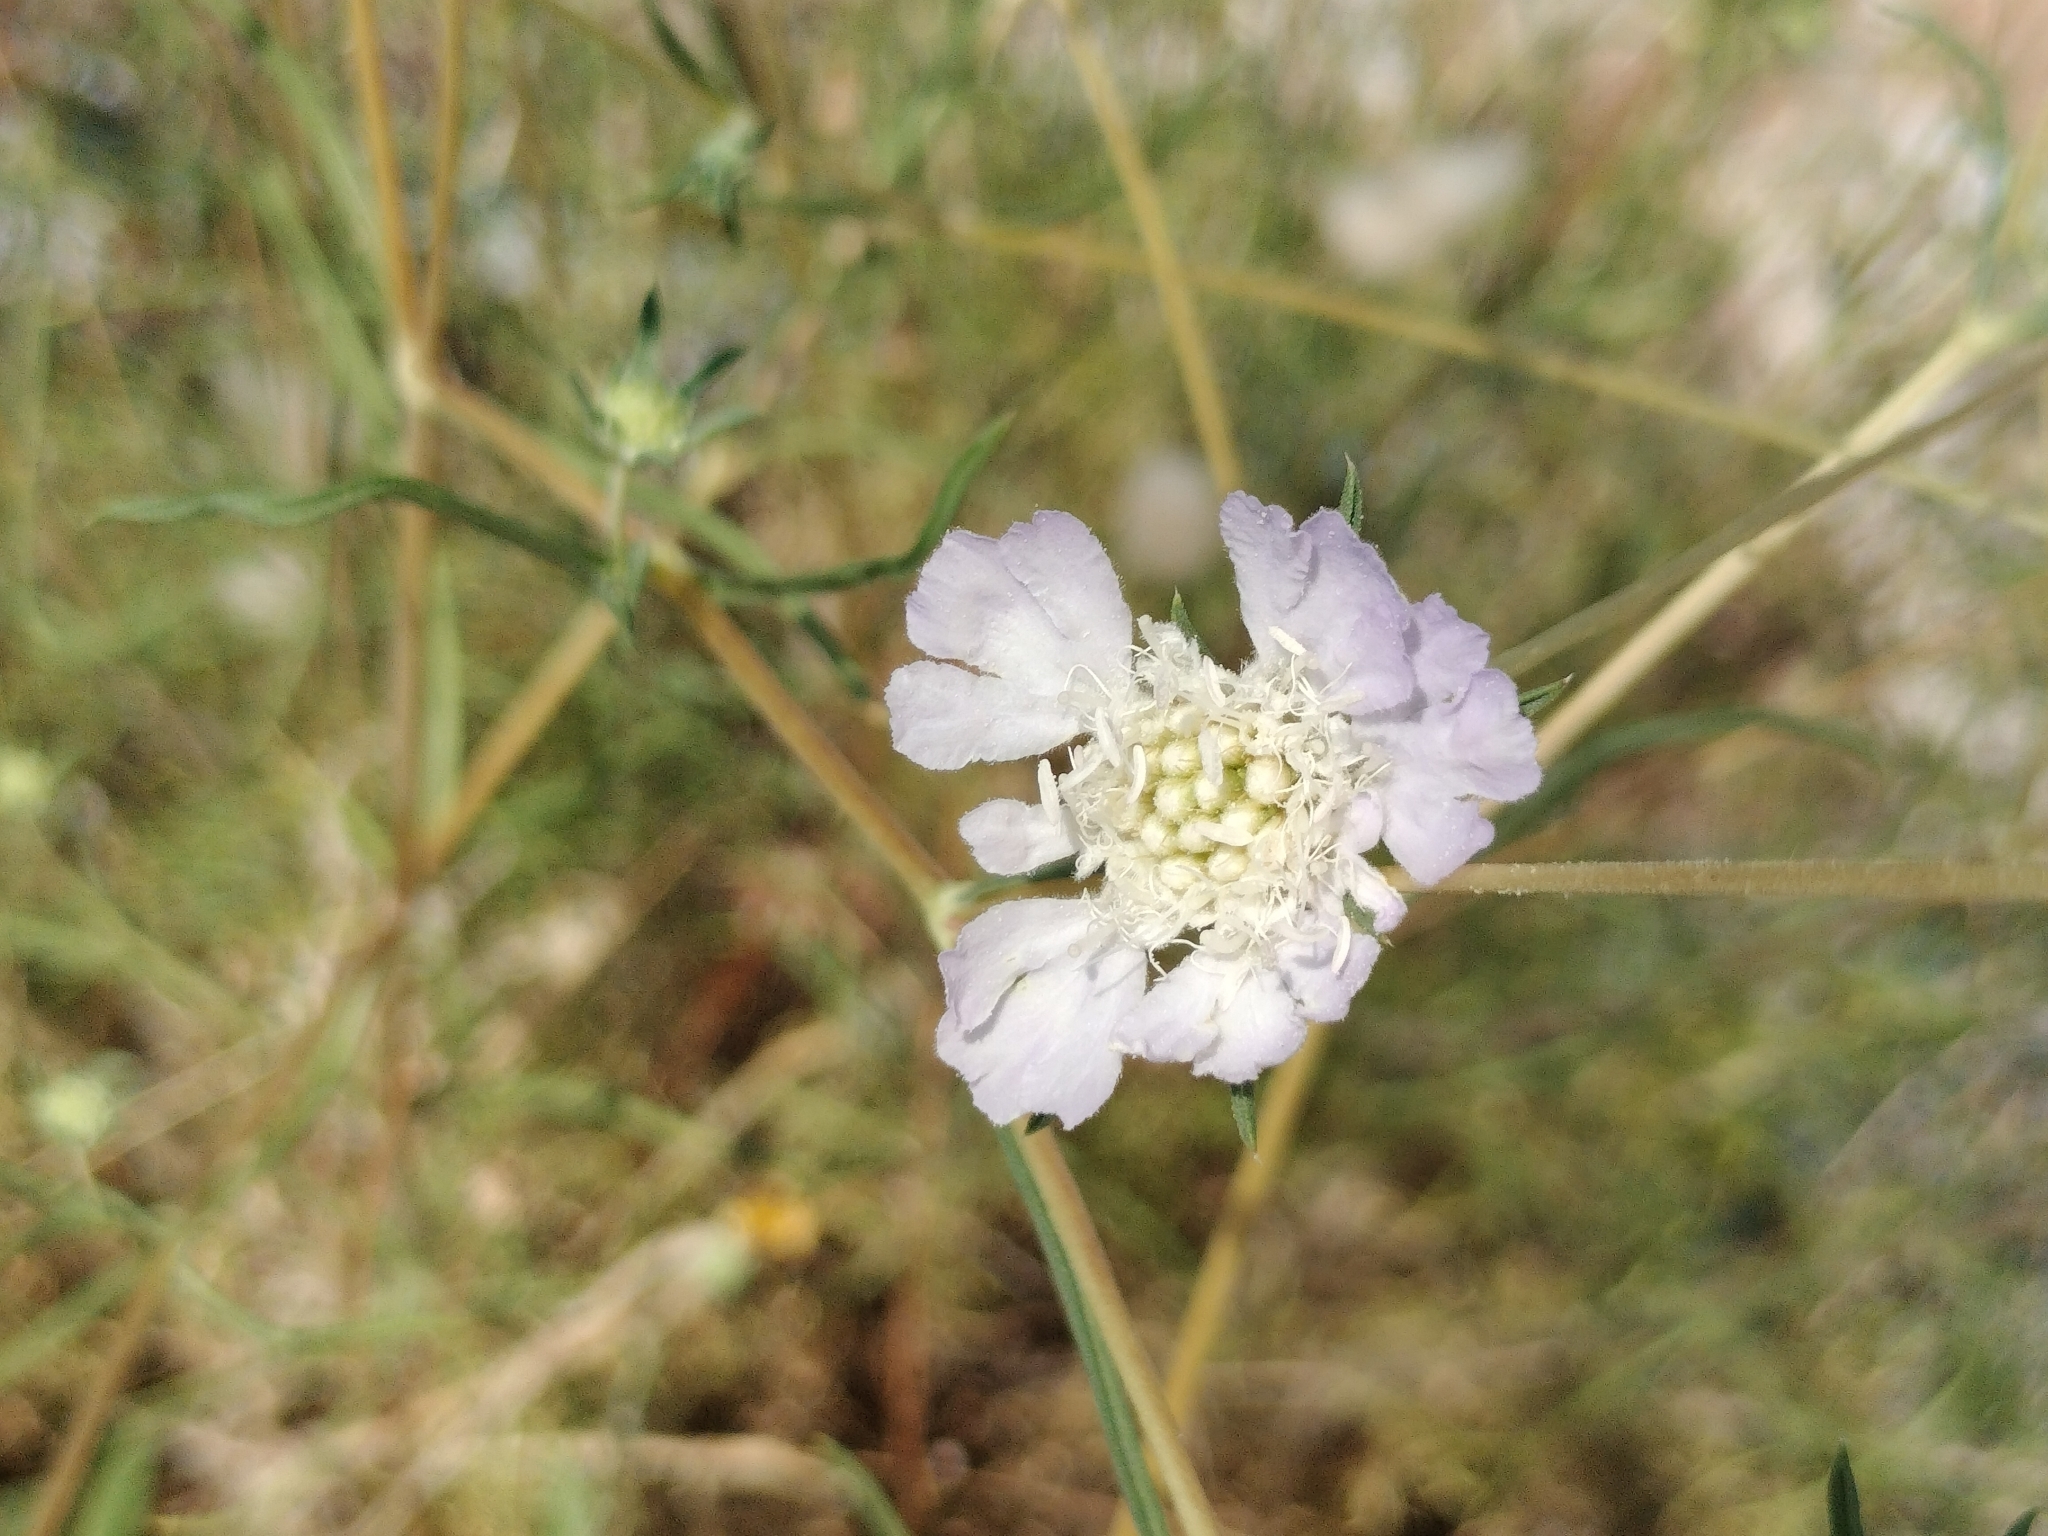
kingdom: Plantae
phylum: Tracheophyta
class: Magnoliopsida
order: Dipsacales
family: Caprifoliaceae
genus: Lomelosia
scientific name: Lomelosia argentea
